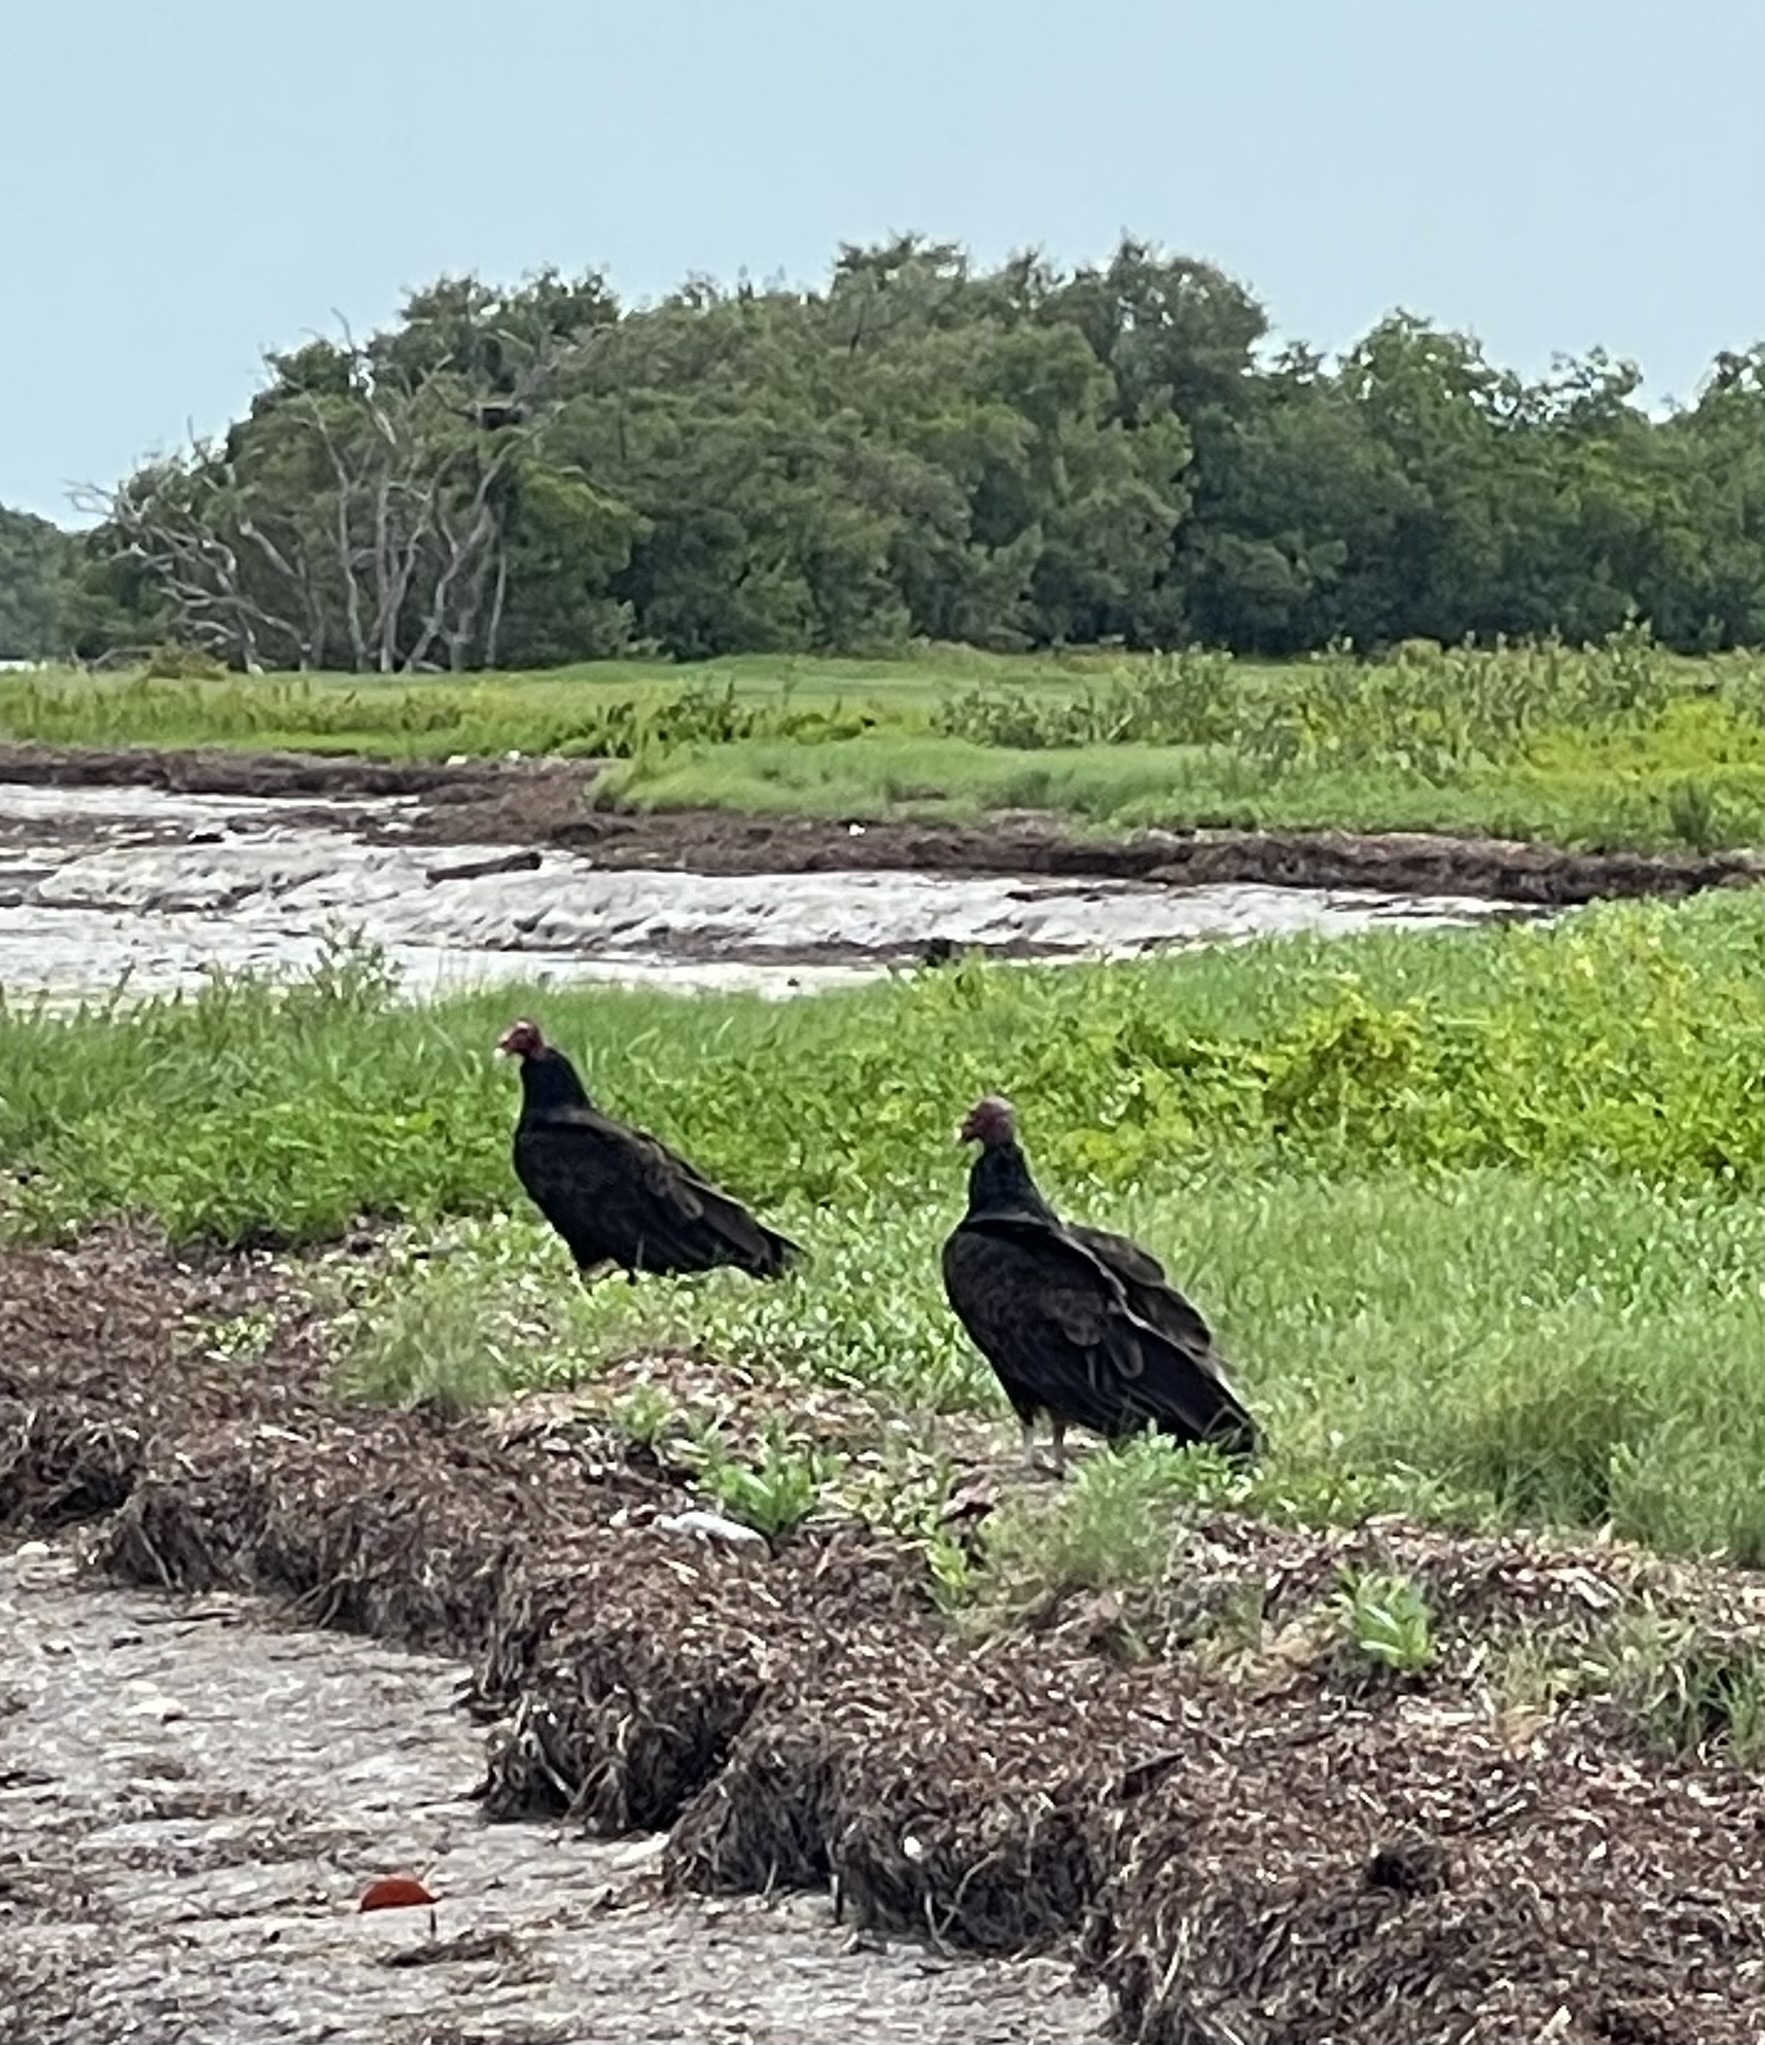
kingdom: Animalia
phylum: Chordata
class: Aves
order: Accipitriformes
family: Cathartidae
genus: Cathartes
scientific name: Cathartes aura
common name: Turkey vulture
